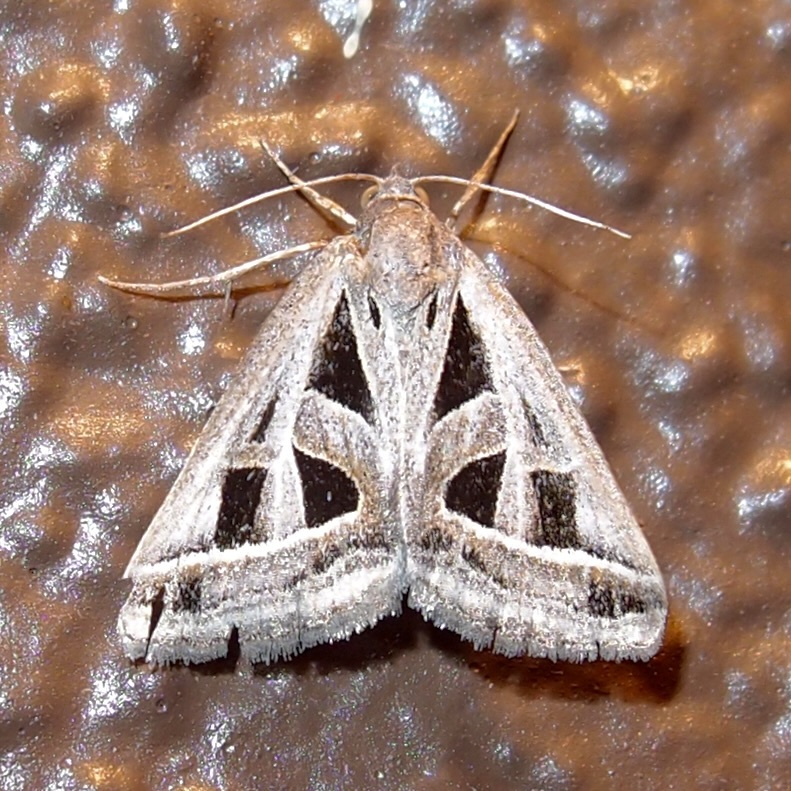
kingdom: Animalia
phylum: Arthropoda
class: Insecta
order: Lepidoptera
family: Erebidae
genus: Callistege
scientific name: Callistege diagonalis
